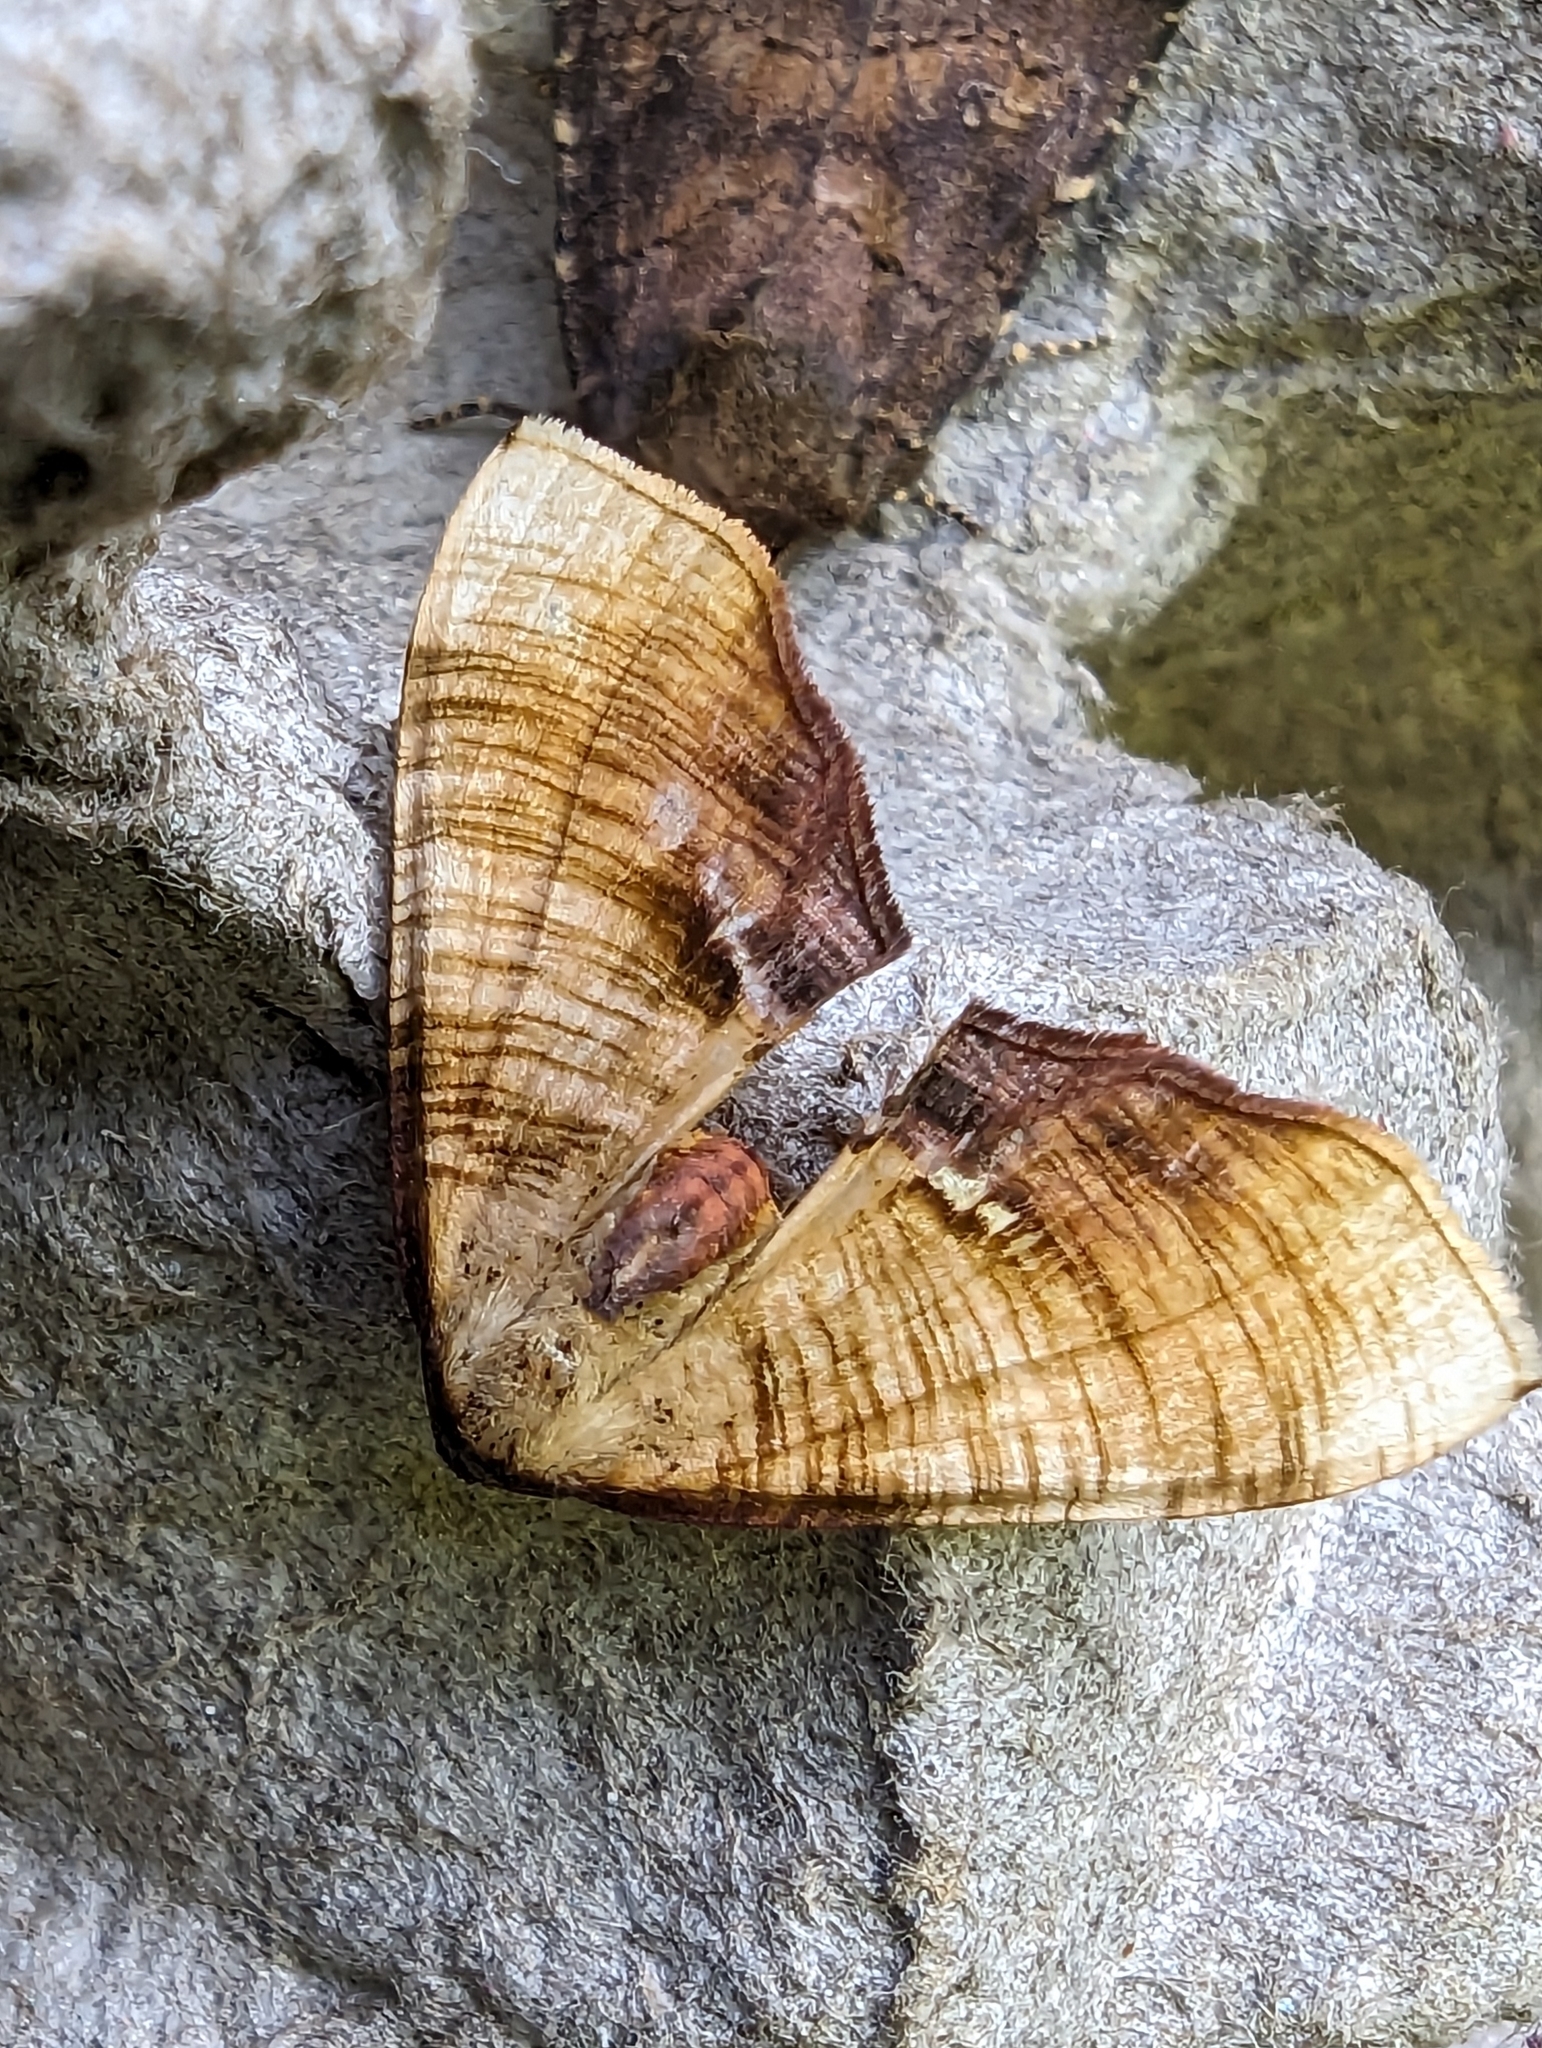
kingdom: Animalia
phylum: Arthropoda
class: Insecta
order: Lepidoptera
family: Geometridae
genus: Plagodis
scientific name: Plagodis dolabraria
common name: Scorched wing
